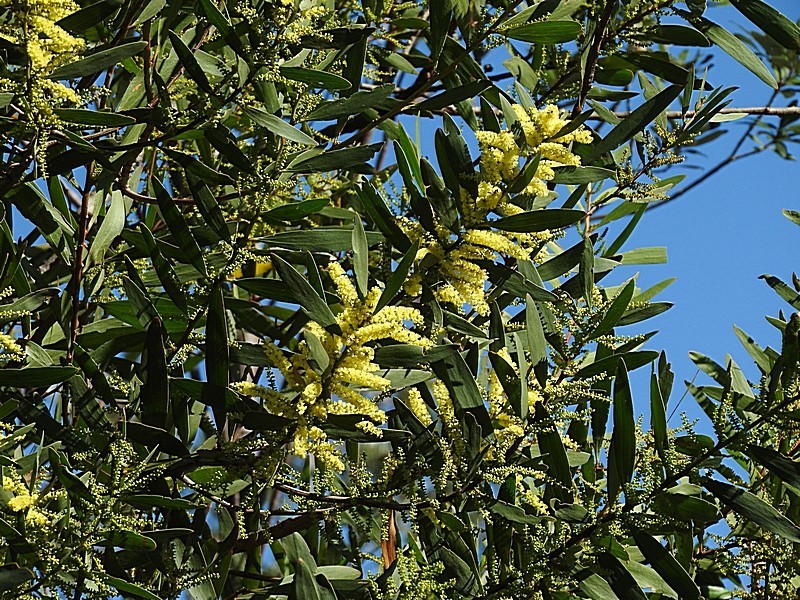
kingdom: Plantae
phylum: Tracheophyta
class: Magnoliopsida
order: Fabales
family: Fabaceae
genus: Acacia
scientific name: Acacia longifolia
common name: Sydney golden wattle
